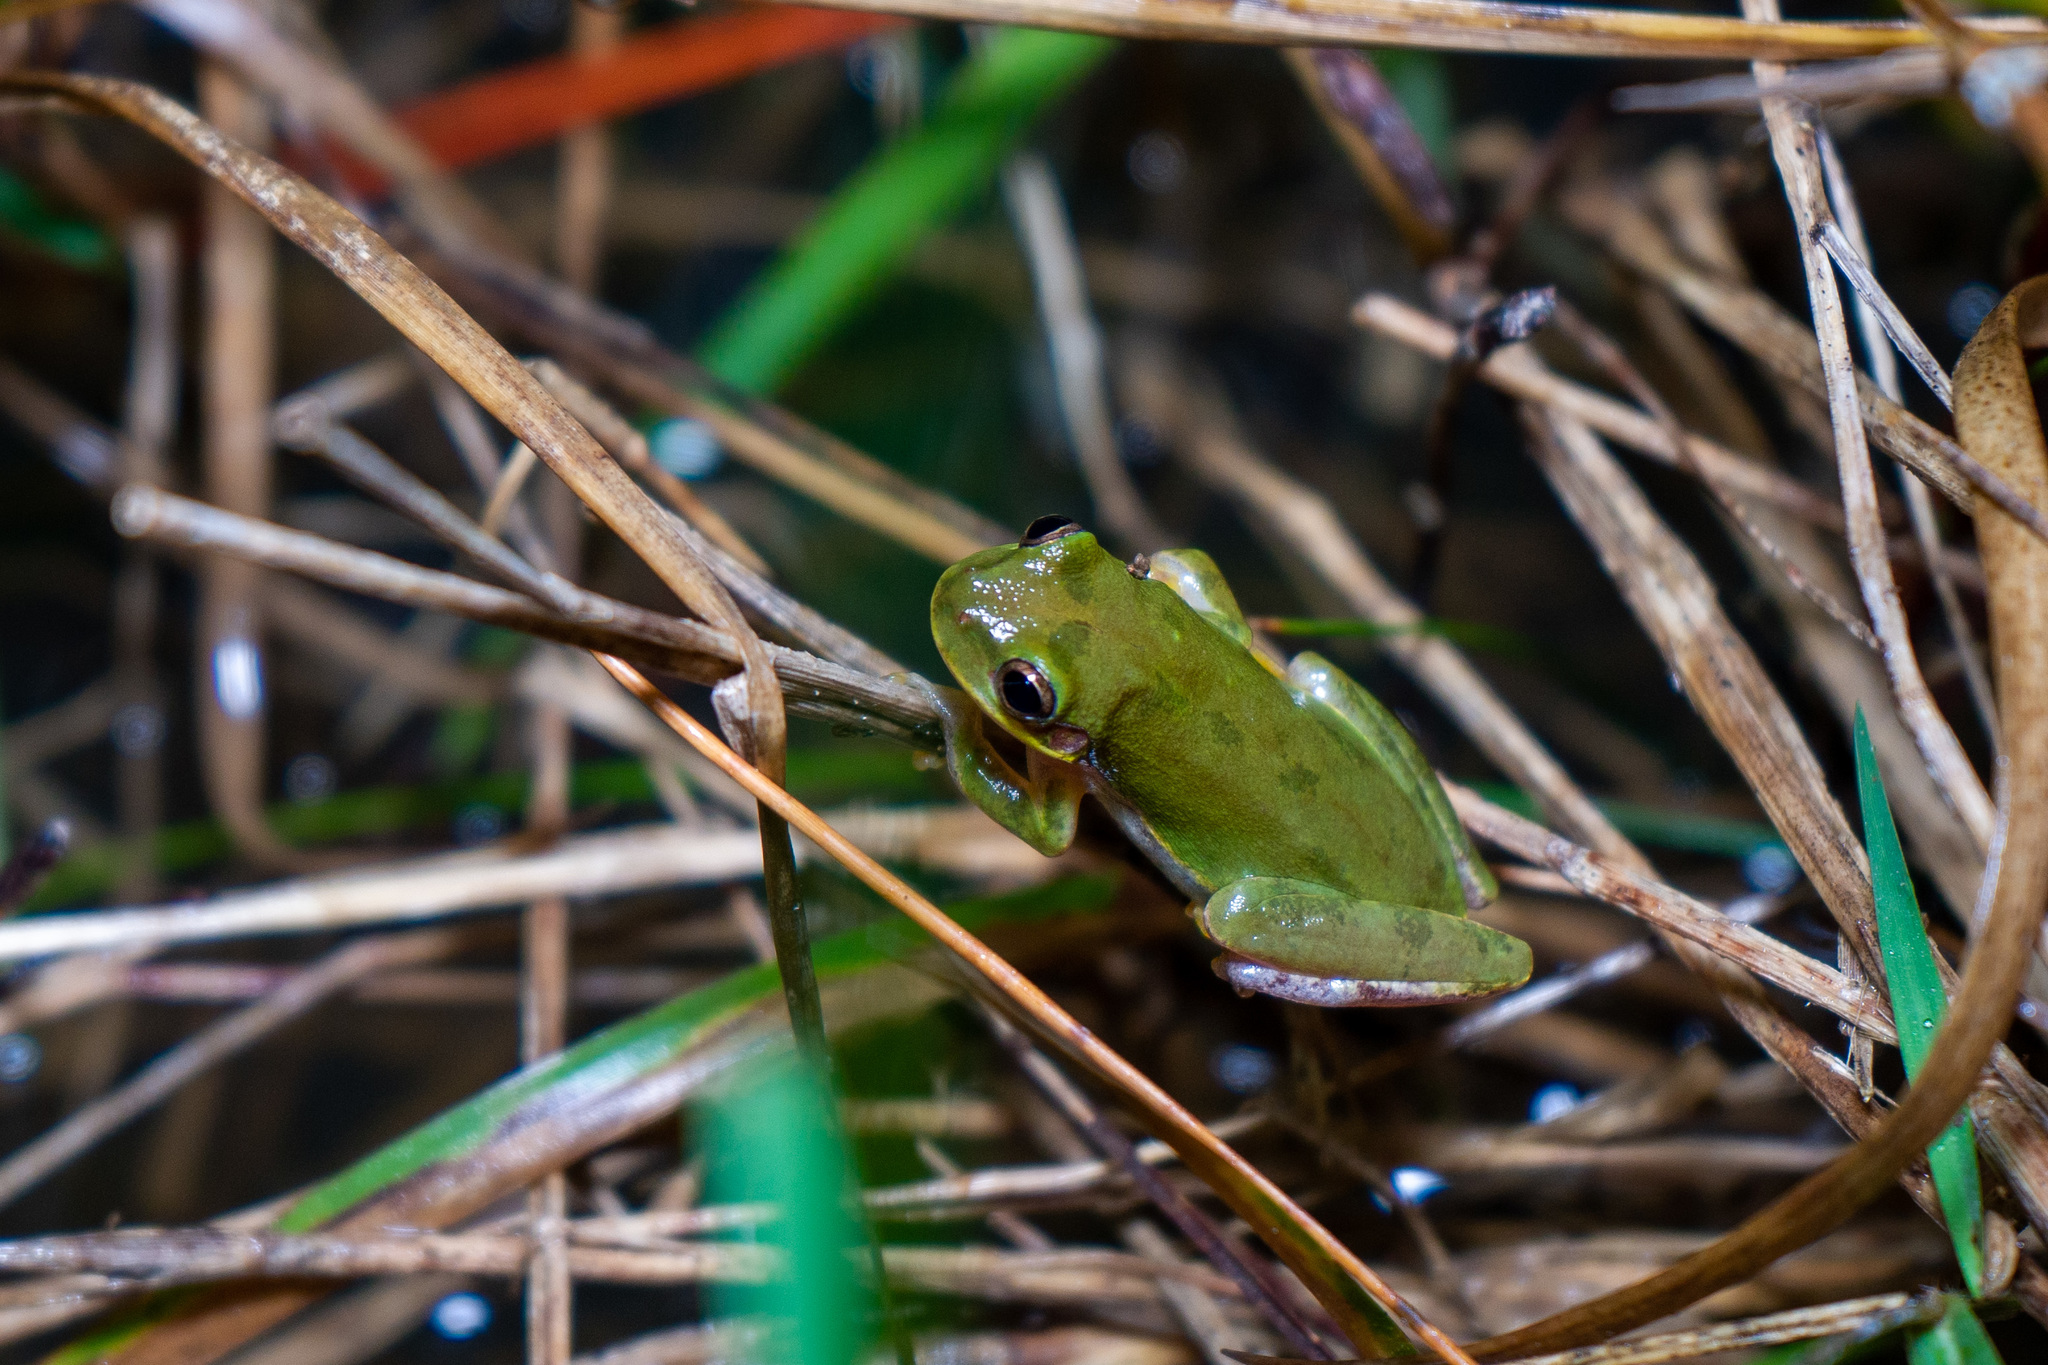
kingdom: Animalia
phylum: Chordata
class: Amphibia
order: Anura
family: Hylidae
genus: Dryophytes
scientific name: Dryophytes squirellus
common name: Squirrel treefrog
